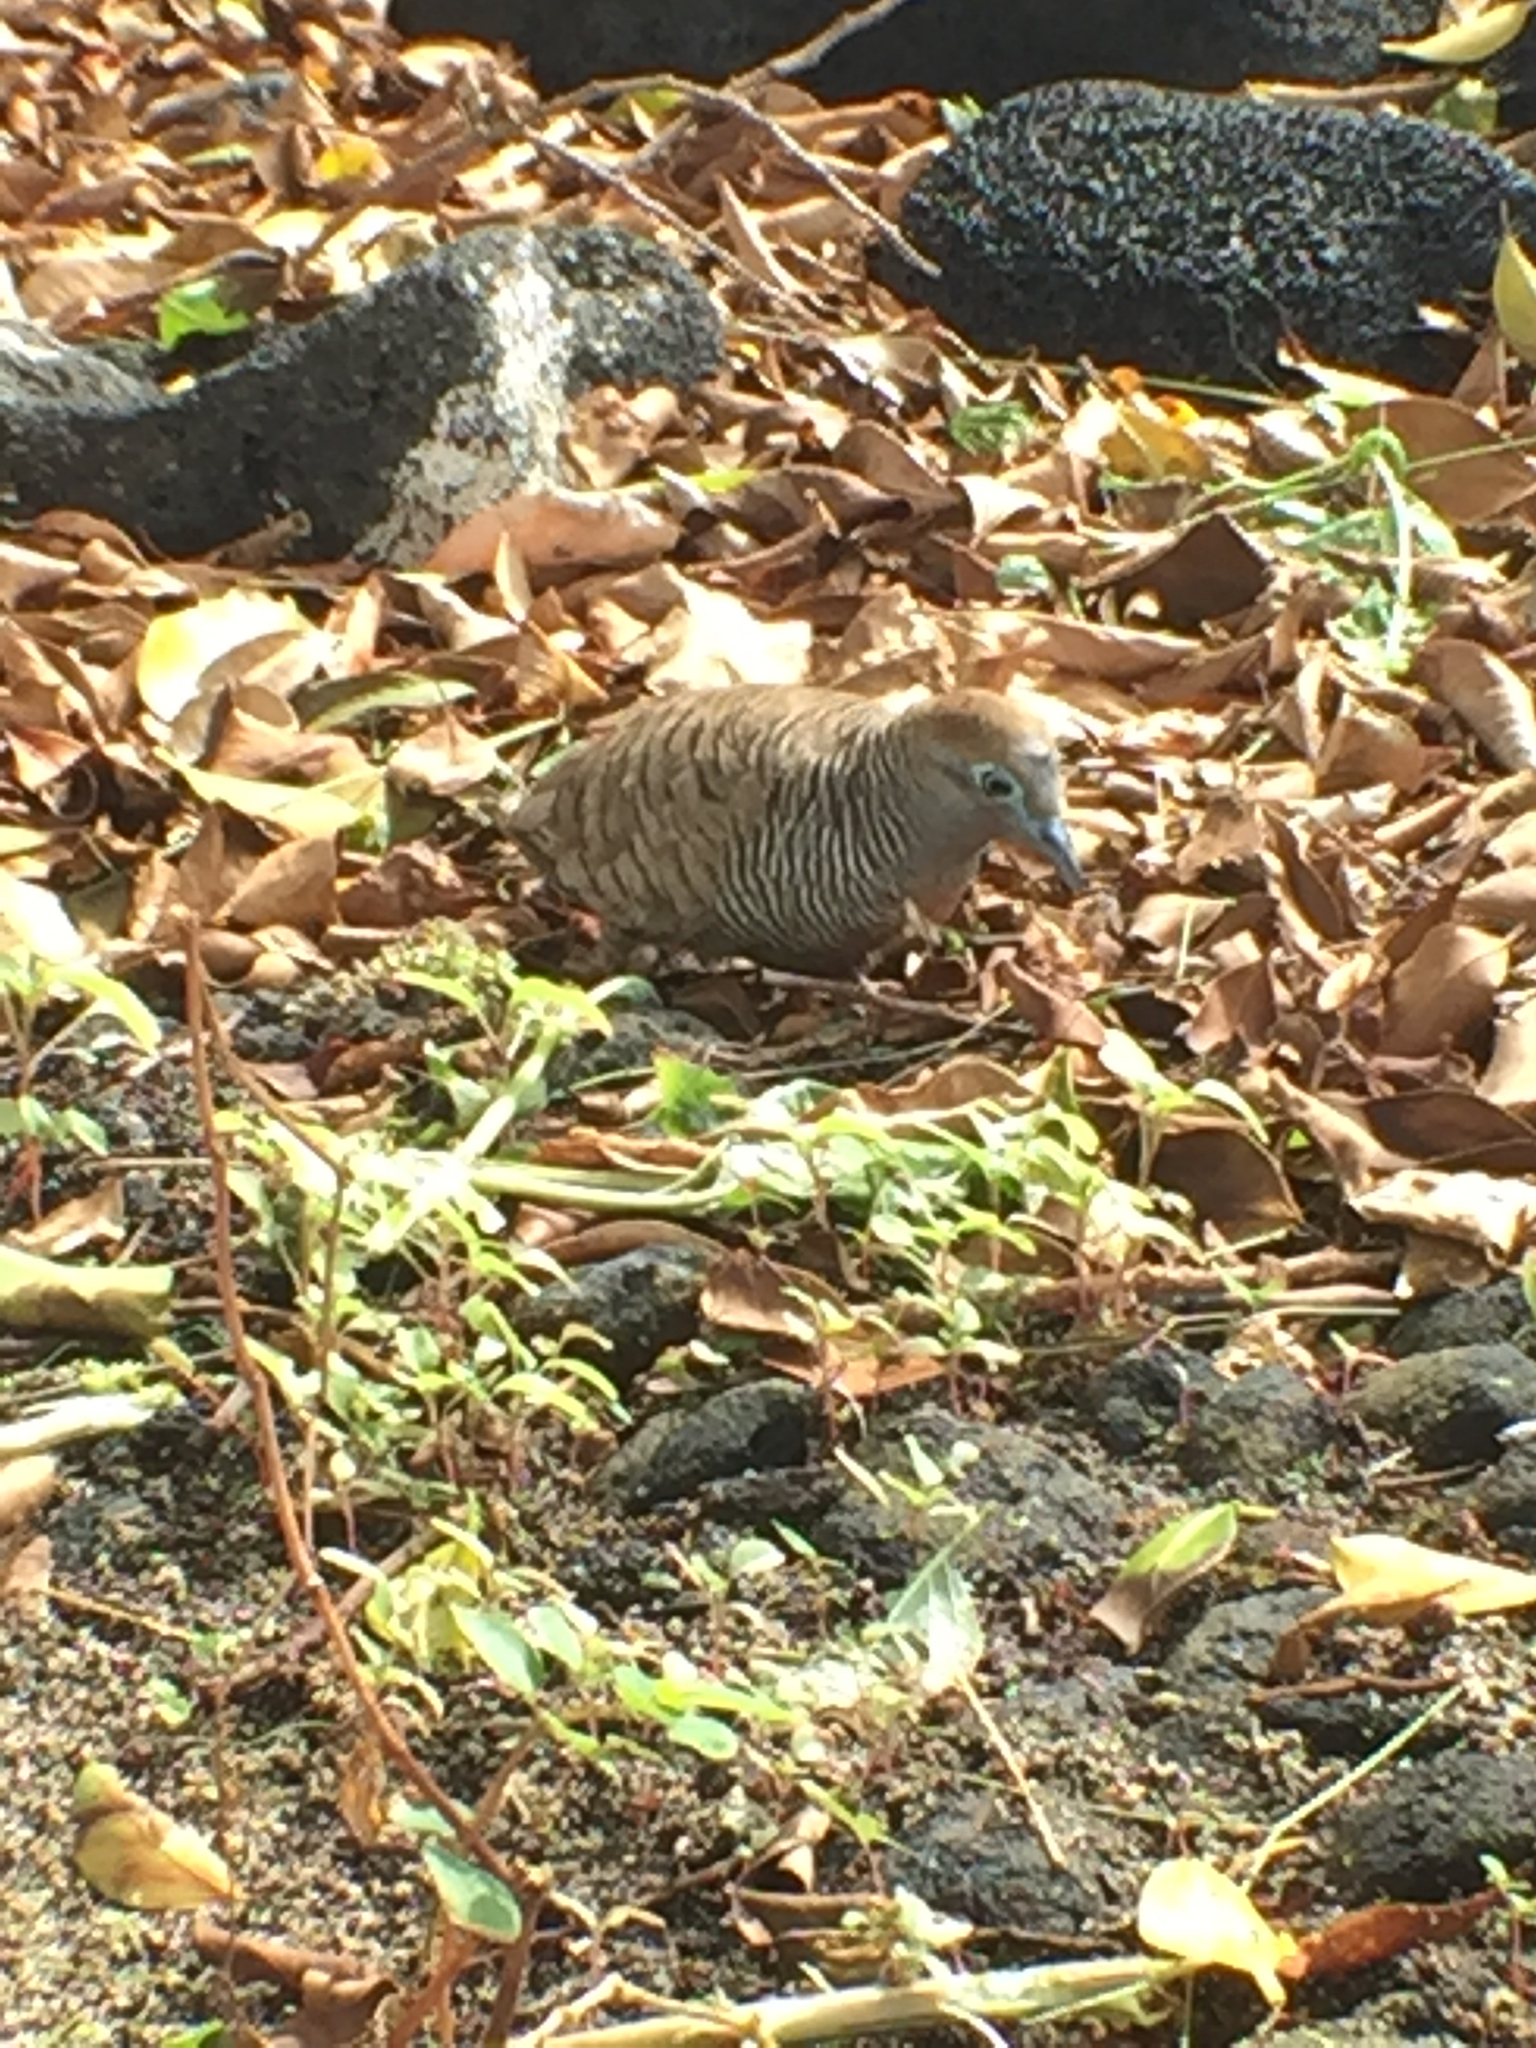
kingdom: Animalia
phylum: Chordata
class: Aves
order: Columbiformes
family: Columbidae
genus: Geopelia
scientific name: Geopelia striata
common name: Zebra dove
